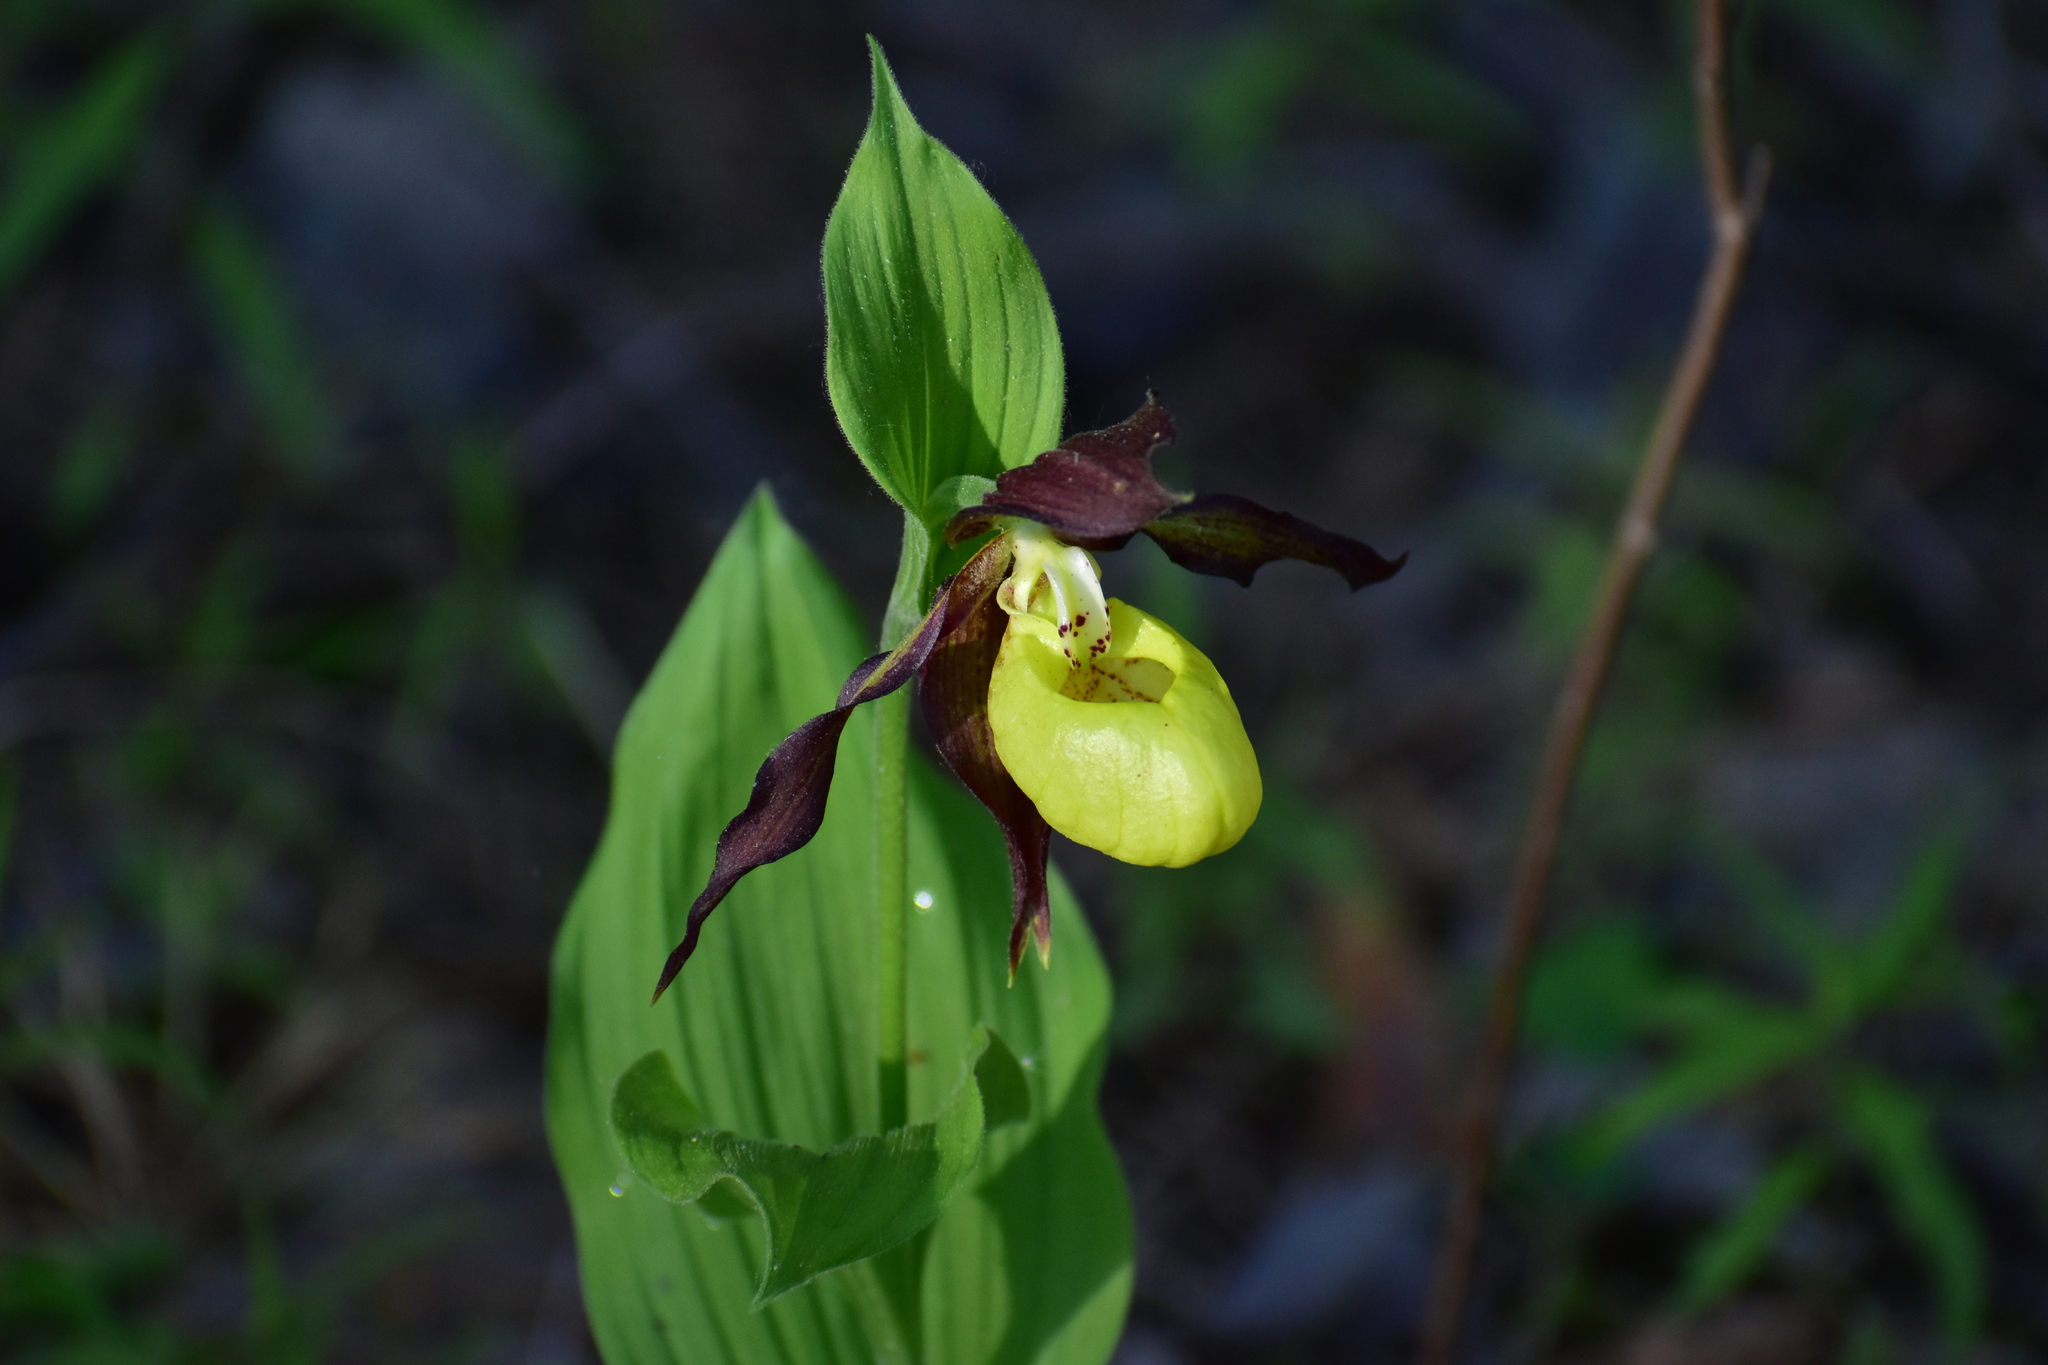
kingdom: Plantae
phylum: Tracheophyta
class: Liliopsida
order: Asparagales
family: Orchidaceae
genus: Cypripedium
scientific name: Cypripedium calceolus
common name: Lady's-slipper
